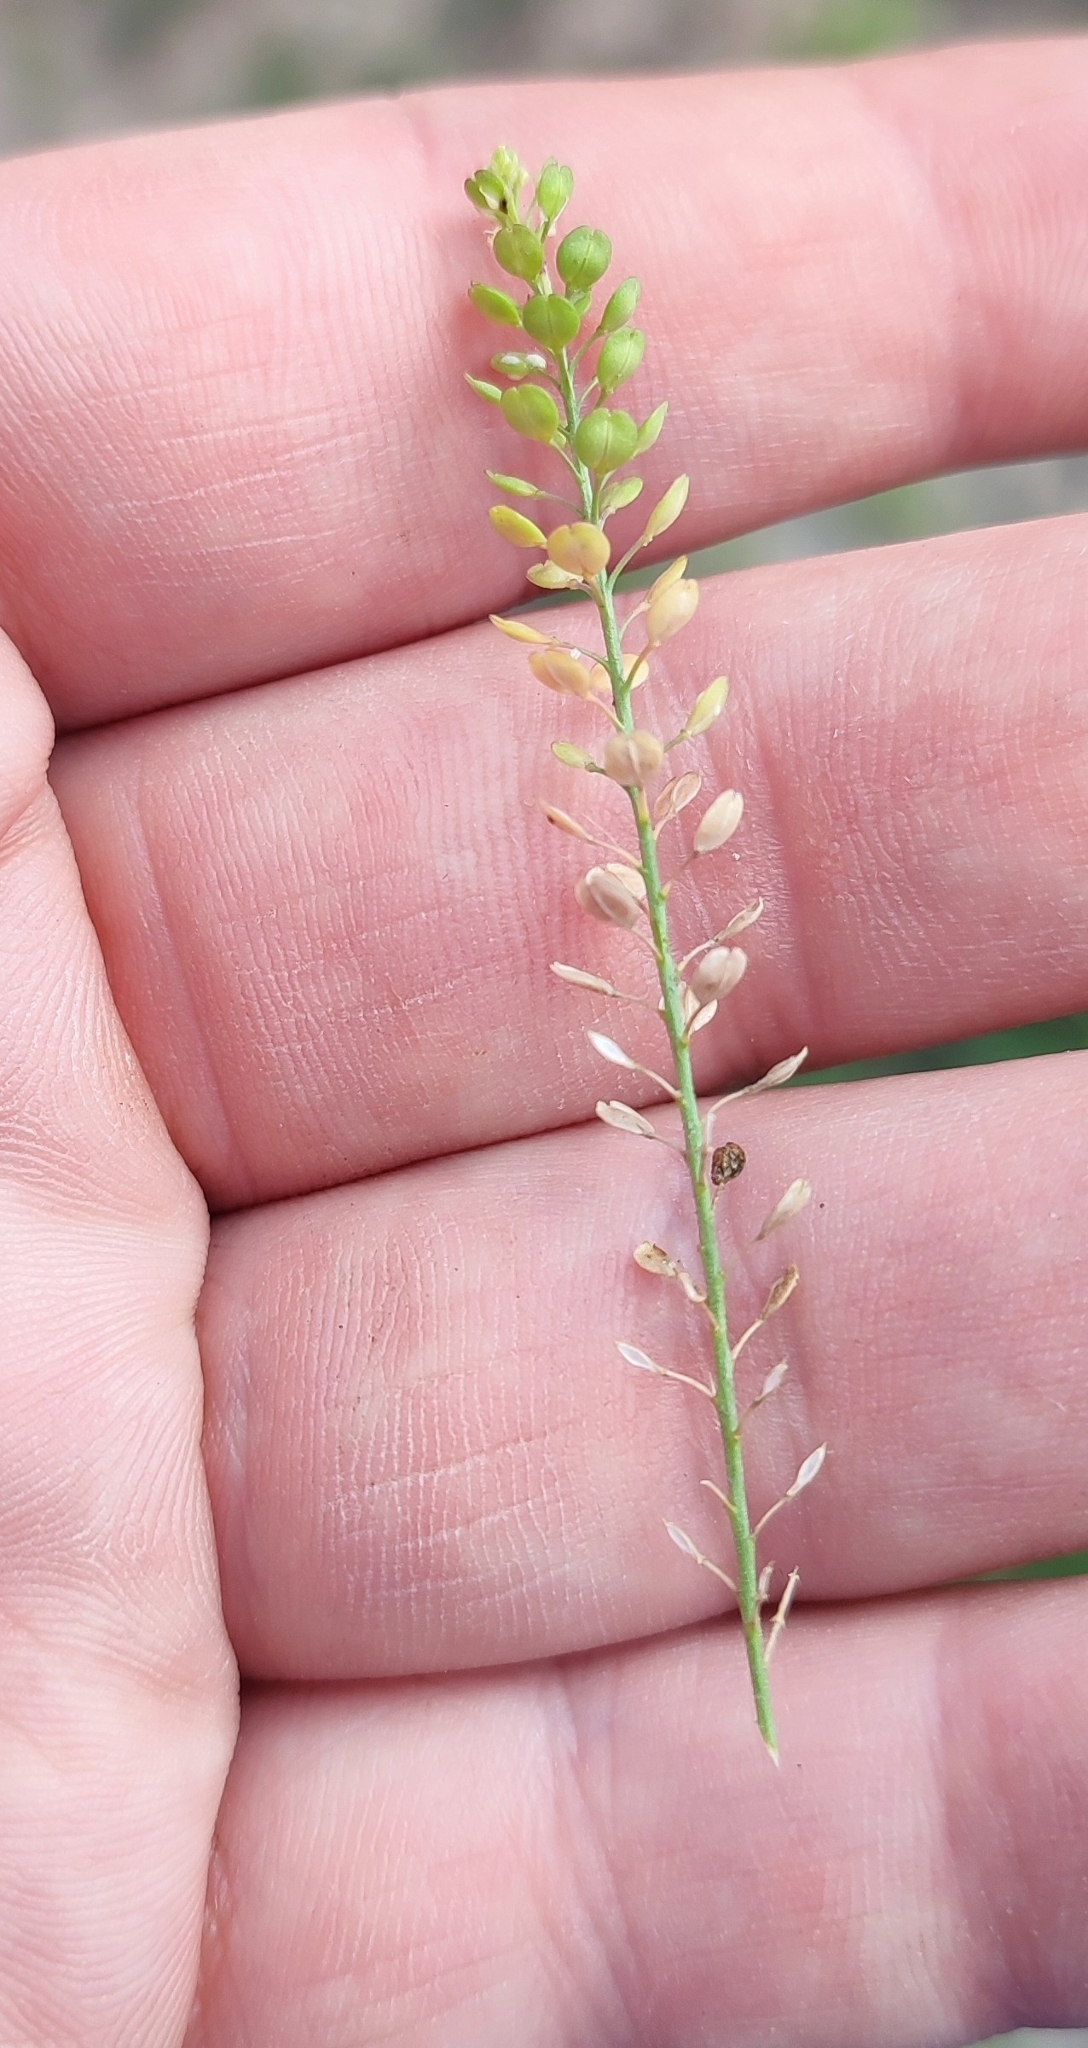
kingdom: Plantae
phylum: Tracheophyta
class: Magnoliopsida
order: Brassicales
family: Brassicaceae
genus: Lepidium
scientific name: Lepidium densiflorum
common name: Miner's pepperwort
